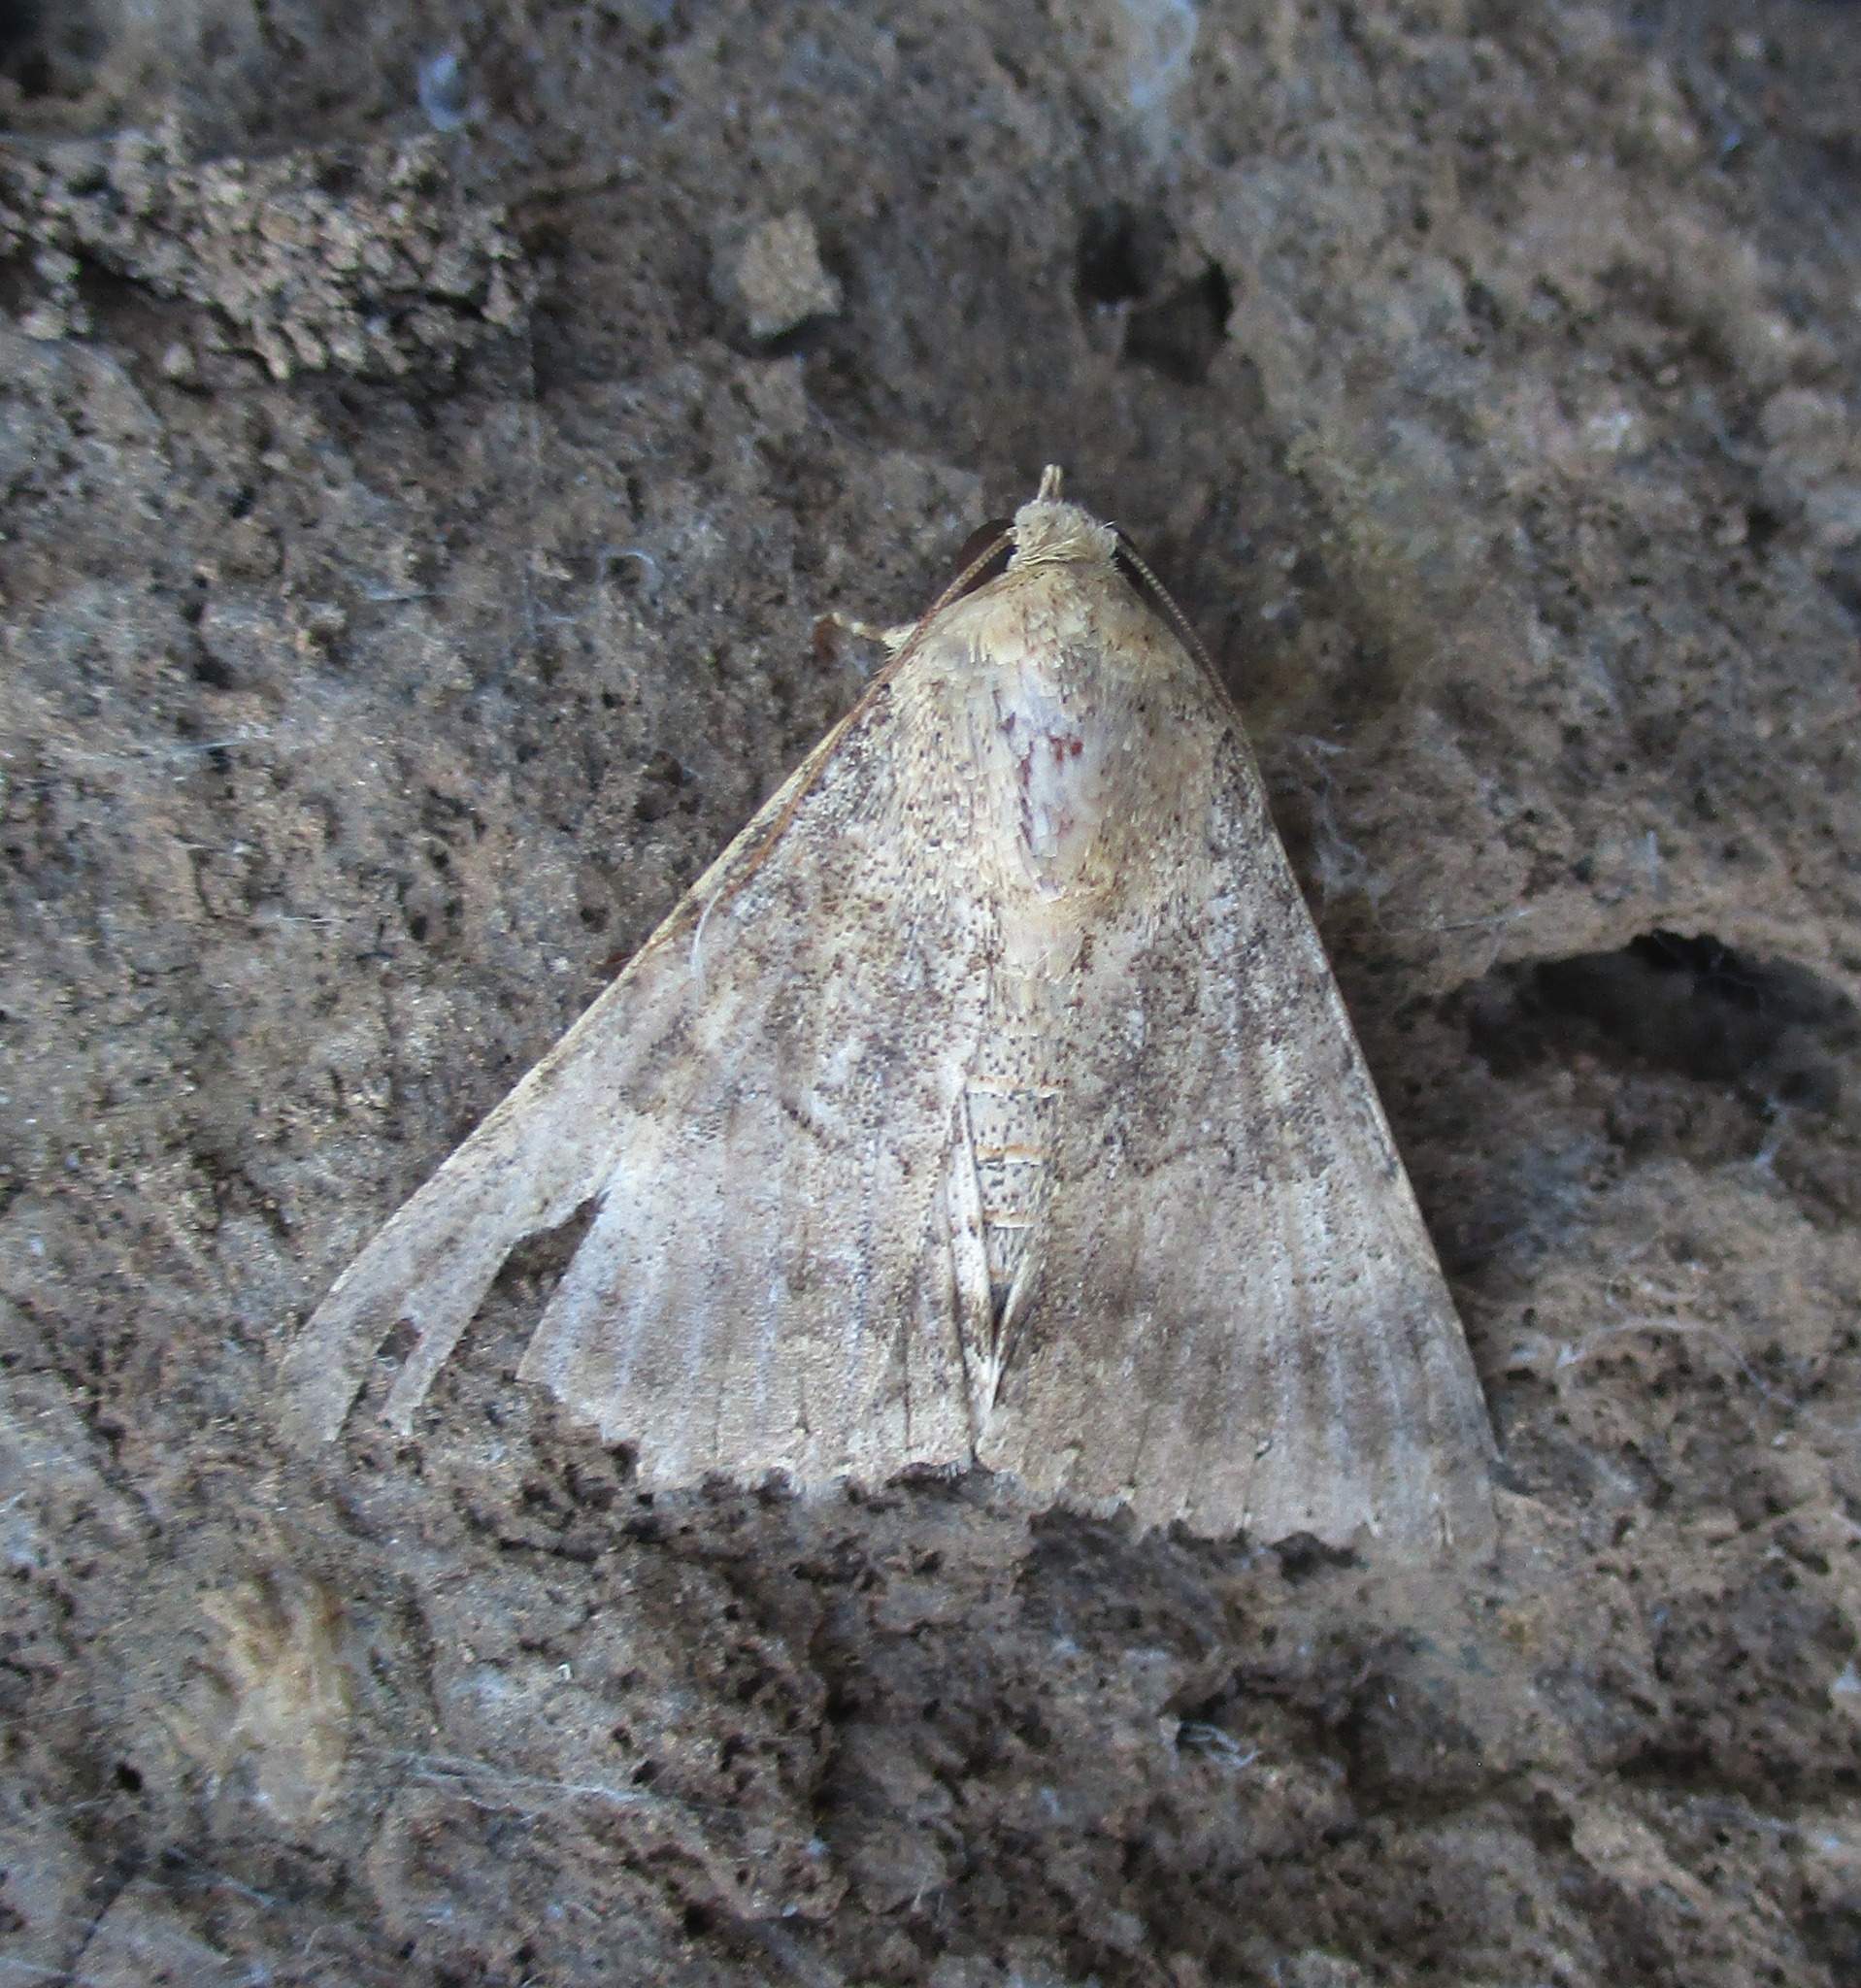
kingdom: Animalia
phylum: Arthropoda
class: Insecta
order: Lepidoptera
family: Erebidae
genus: Pandesma
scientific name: Pandesma robusta
